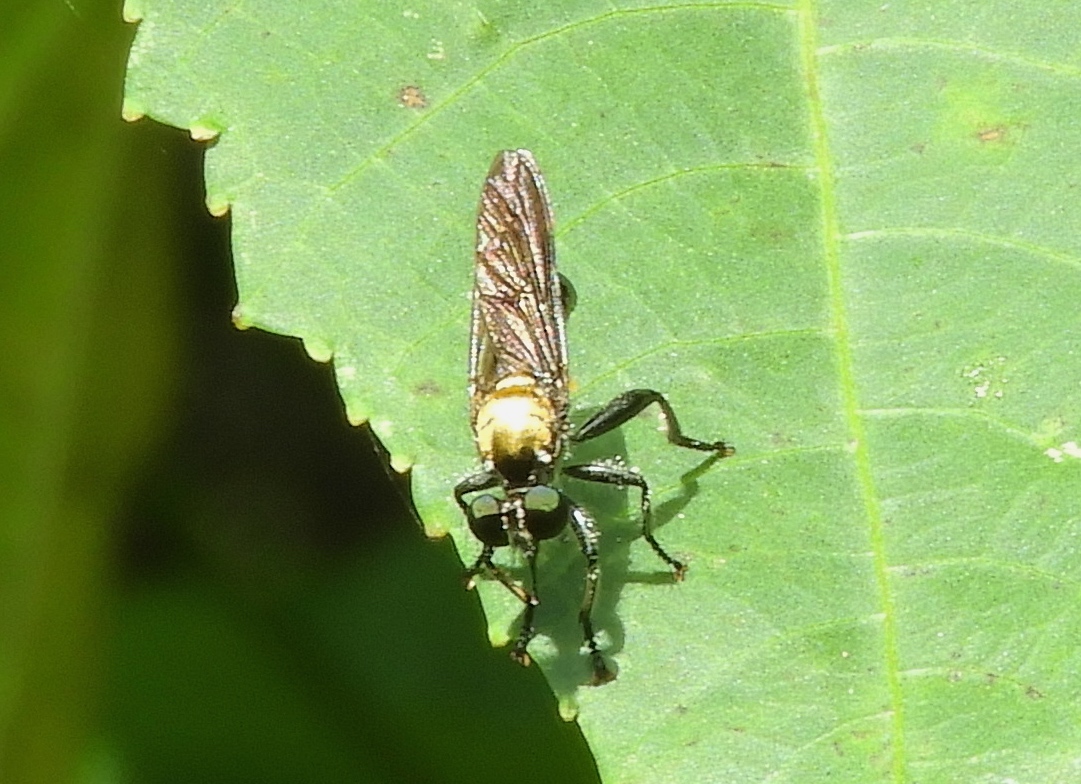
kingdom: Animalia
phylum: Arthropoda
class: Insecta
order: Diptera
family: Asilidae
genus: Lampria
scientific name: Lampria
